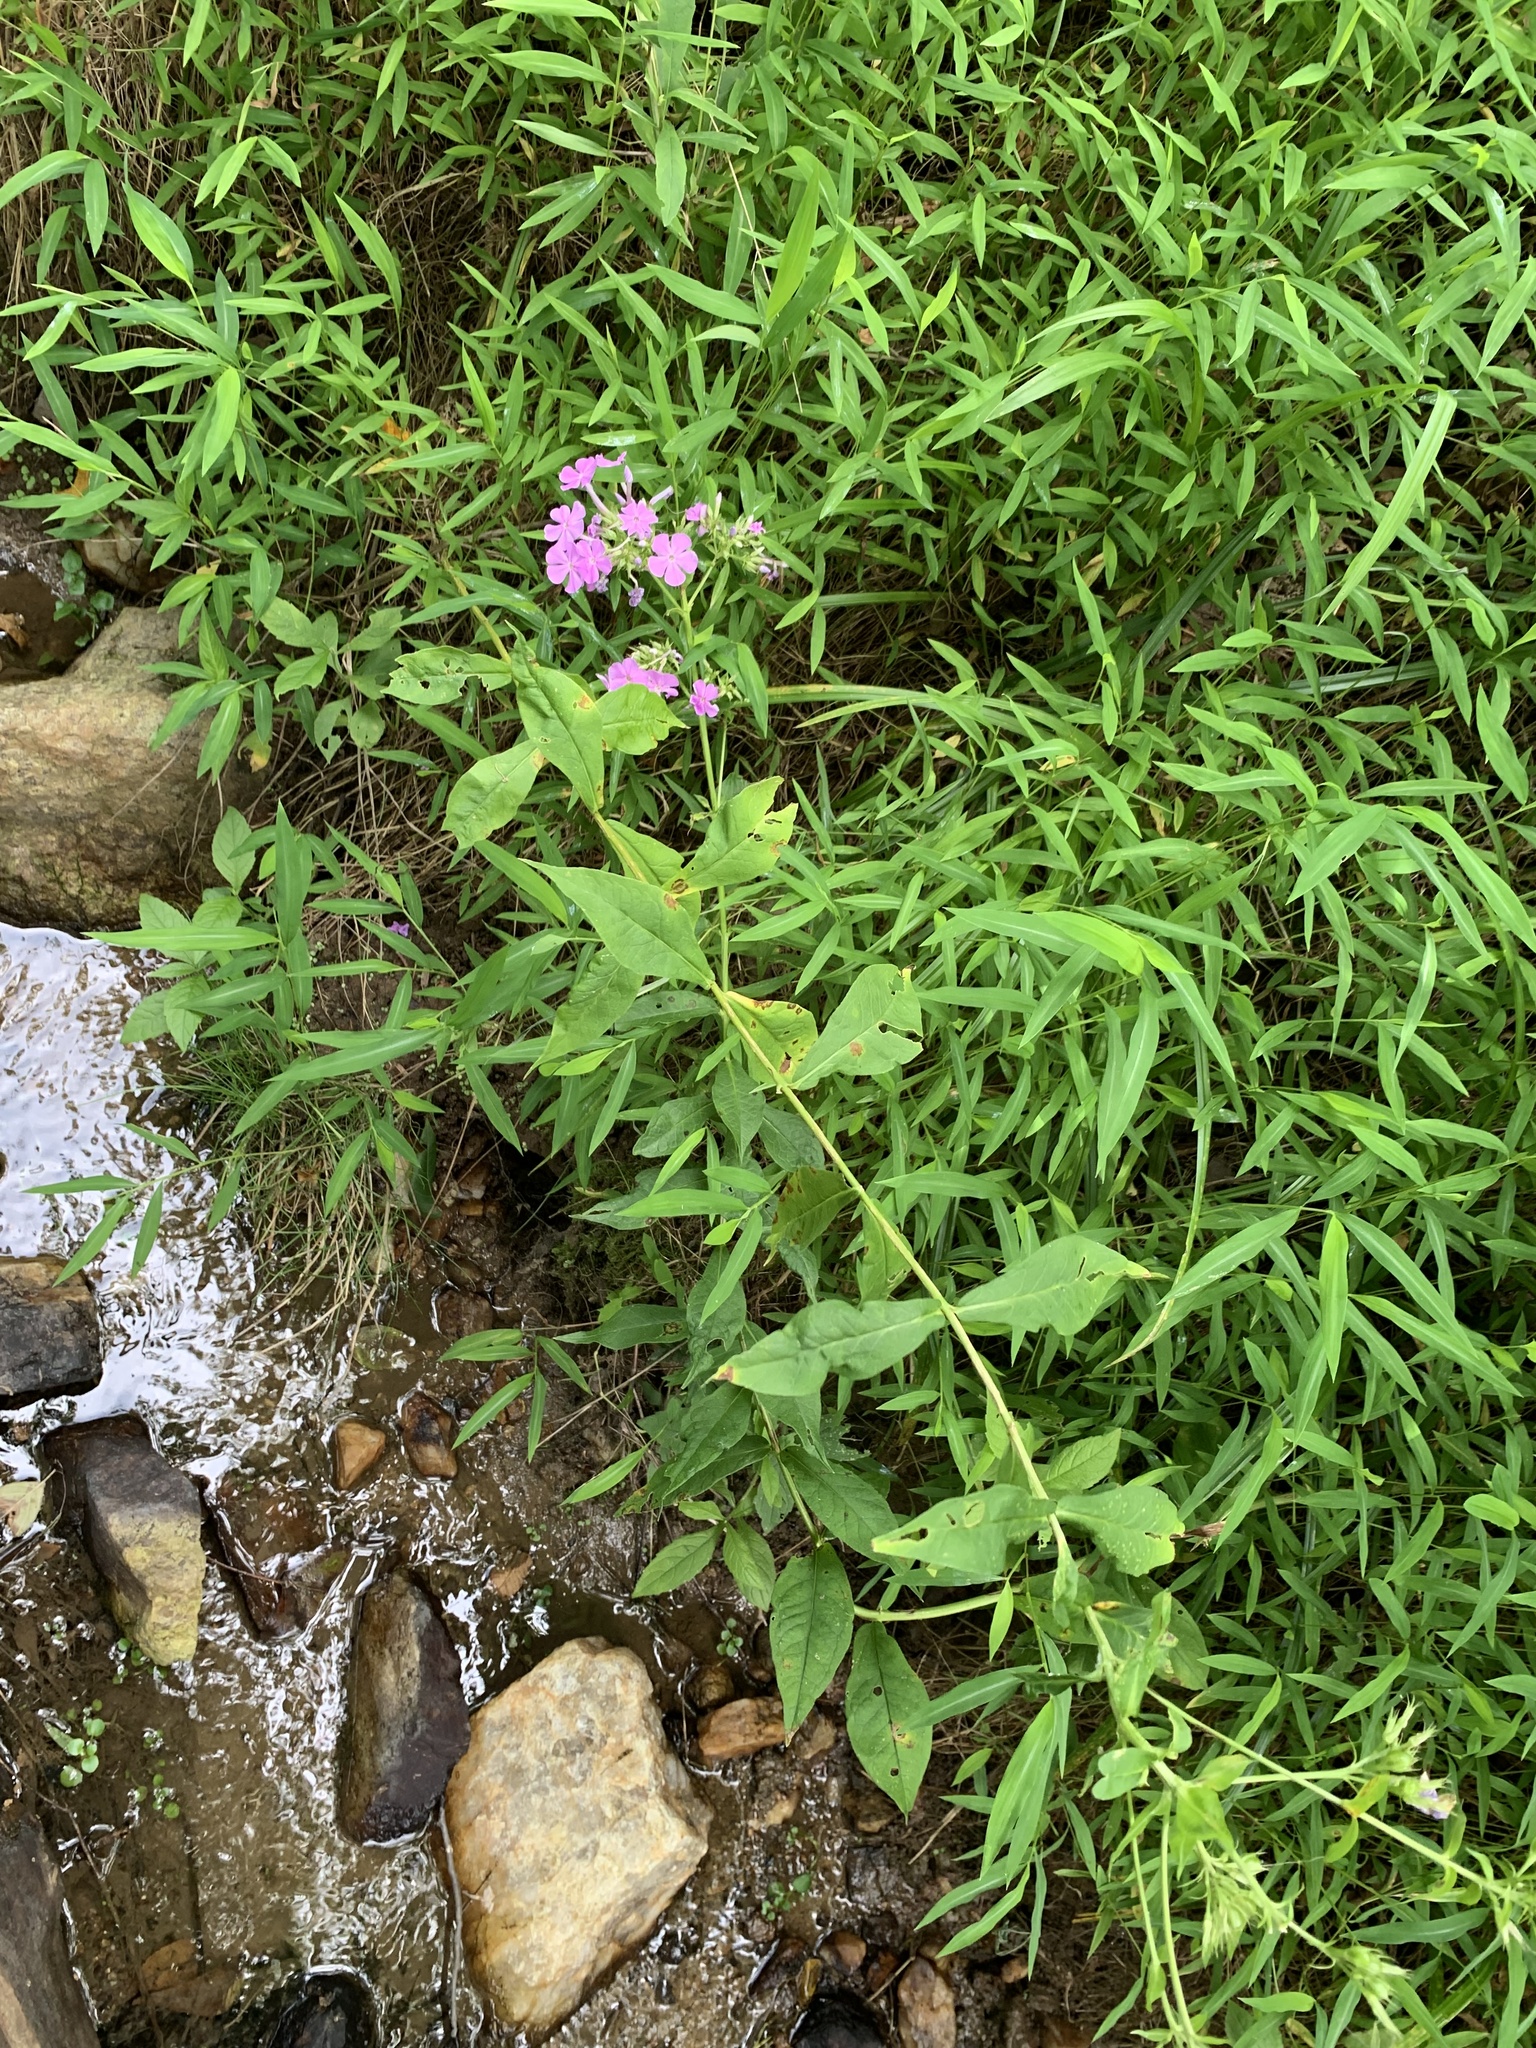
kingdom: Plantae
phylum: Tracheophyta
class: Magnoliopsida
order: Ericales
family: Polemoniaceae
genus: Phlox
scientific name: Phlox paniculata
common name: Fall phlox
